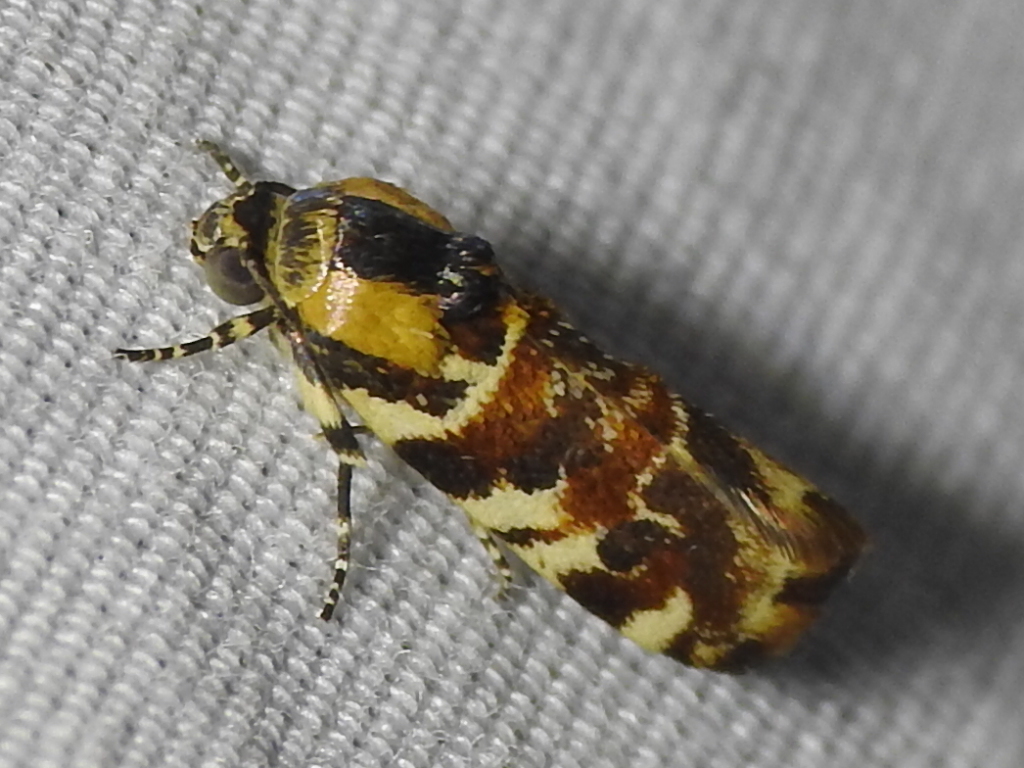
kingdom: Animalia
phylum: Arthropoda
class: Insecta
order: Lepidoptera
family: Noctuidae
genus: Spragueia
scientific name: Spragueia jaguaralis
